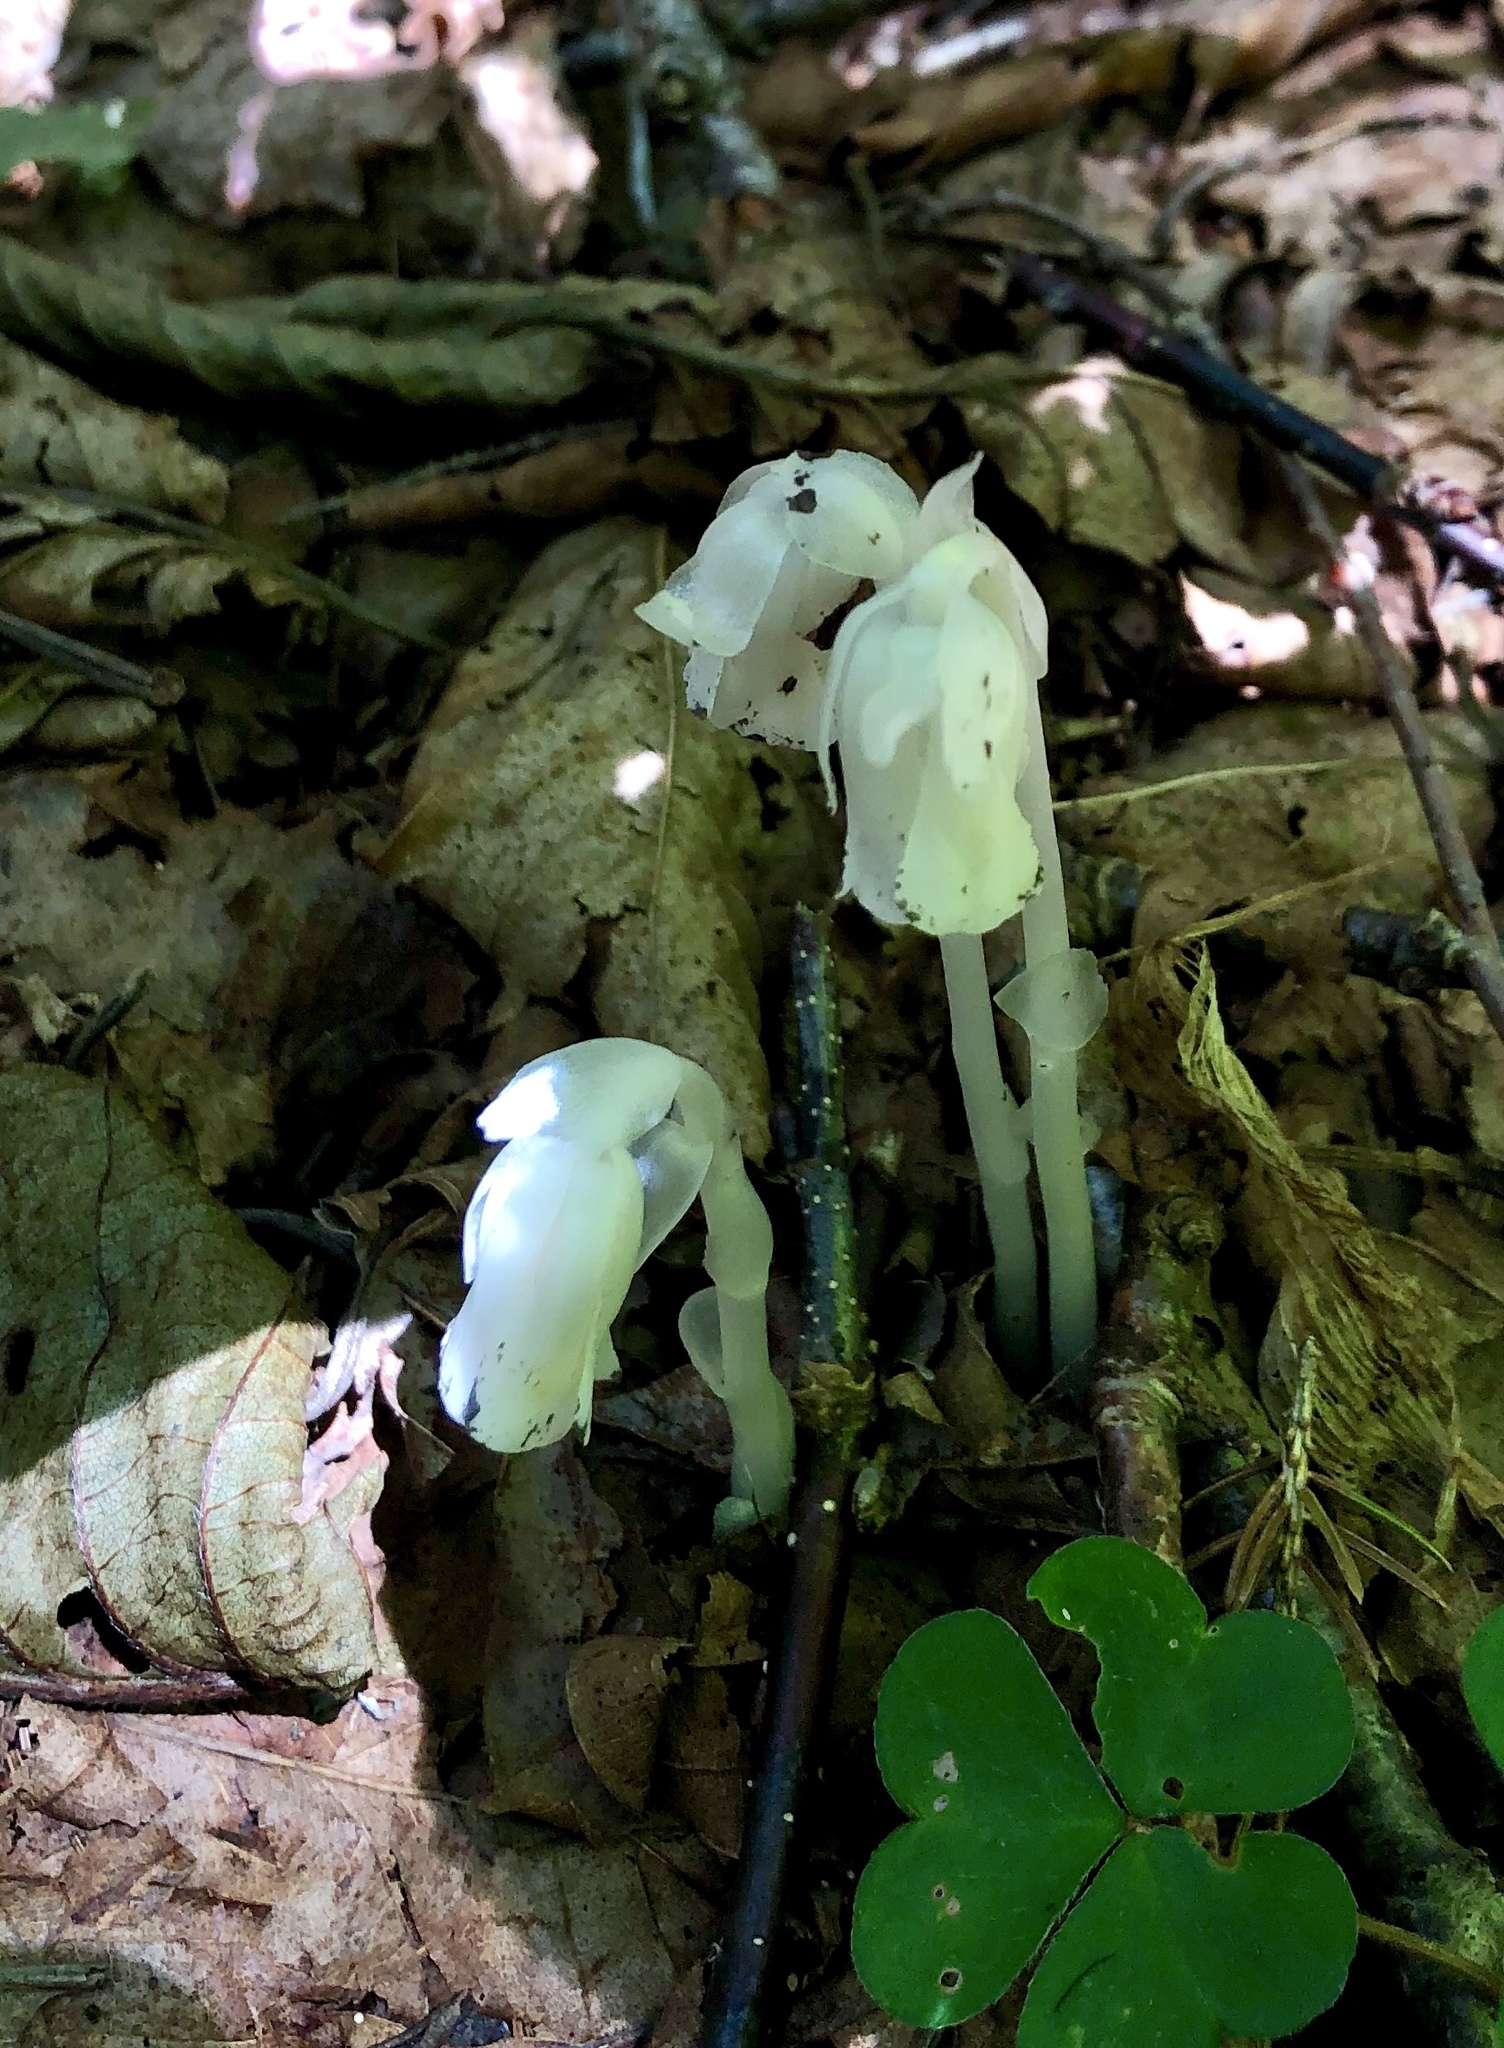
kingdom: Plantae
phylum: Tracheophyta
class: Magnoliopsida
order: Ericales
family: Ericaceae
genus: Monotropa
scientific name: Monotropa uniflora
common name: Convulsion root
